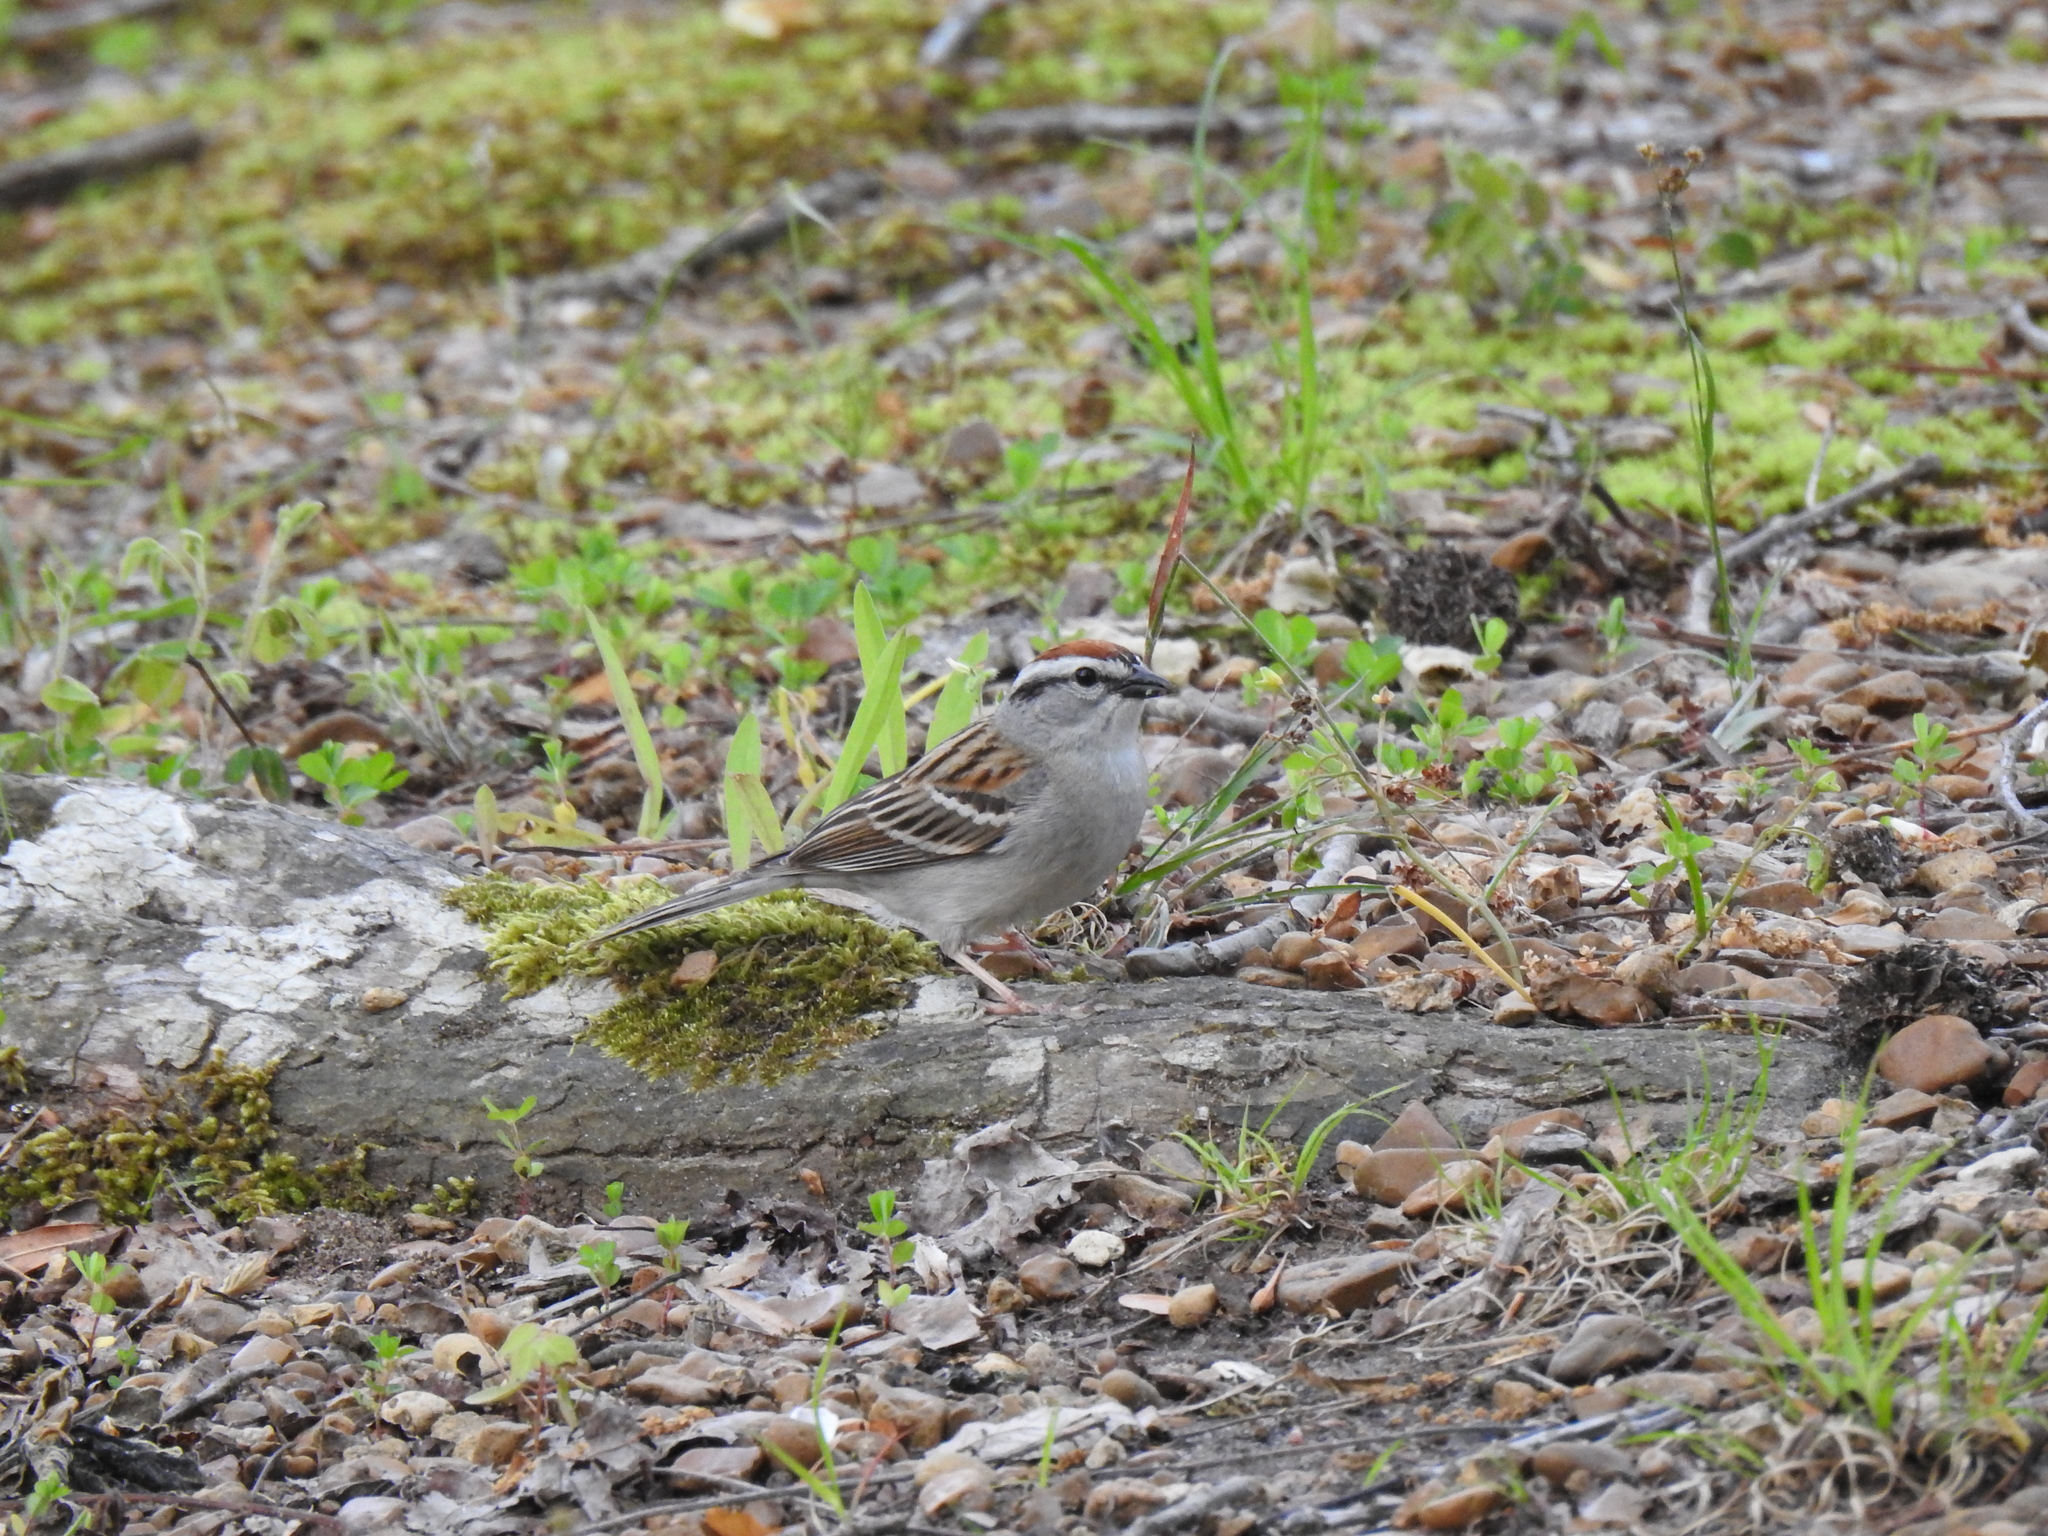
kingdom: Animalia
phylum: Chordata
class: Aves
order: Passeriformes
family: Passerellidae
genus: Spizella
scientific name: Spizella passerina
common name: Chipping sparrow
